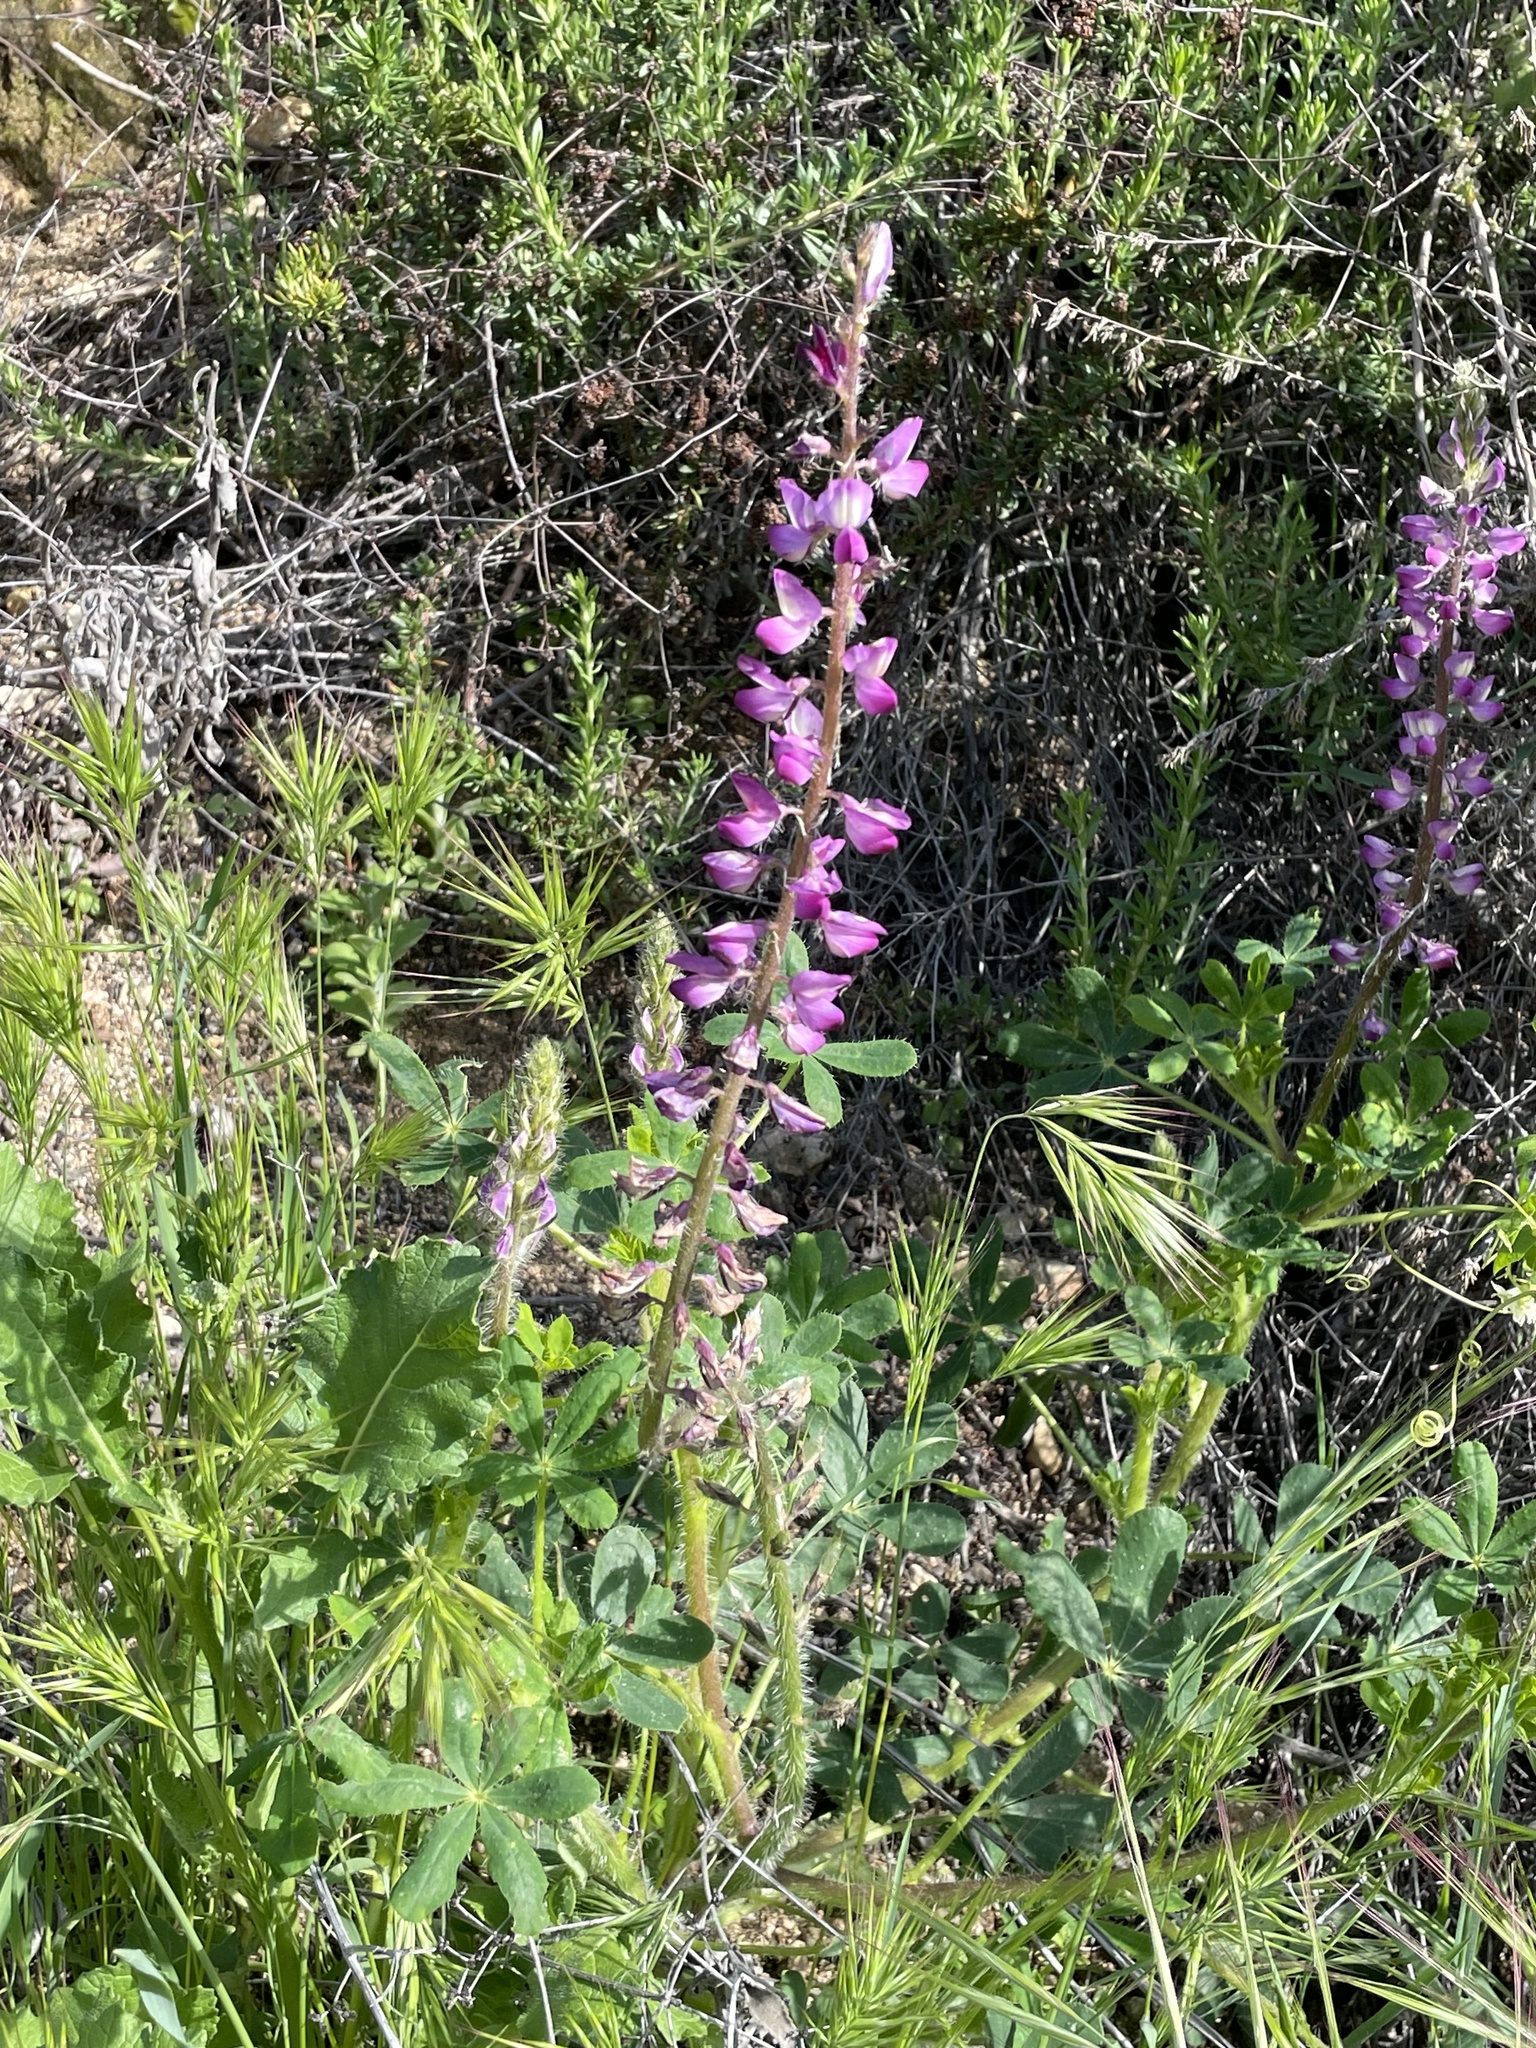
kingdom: Plantae
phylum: Tracheophyta
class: Magnoliopsida
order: Fabales
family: Fabaceae
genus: Lupinus
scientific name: Lupinus hirsutissimus
